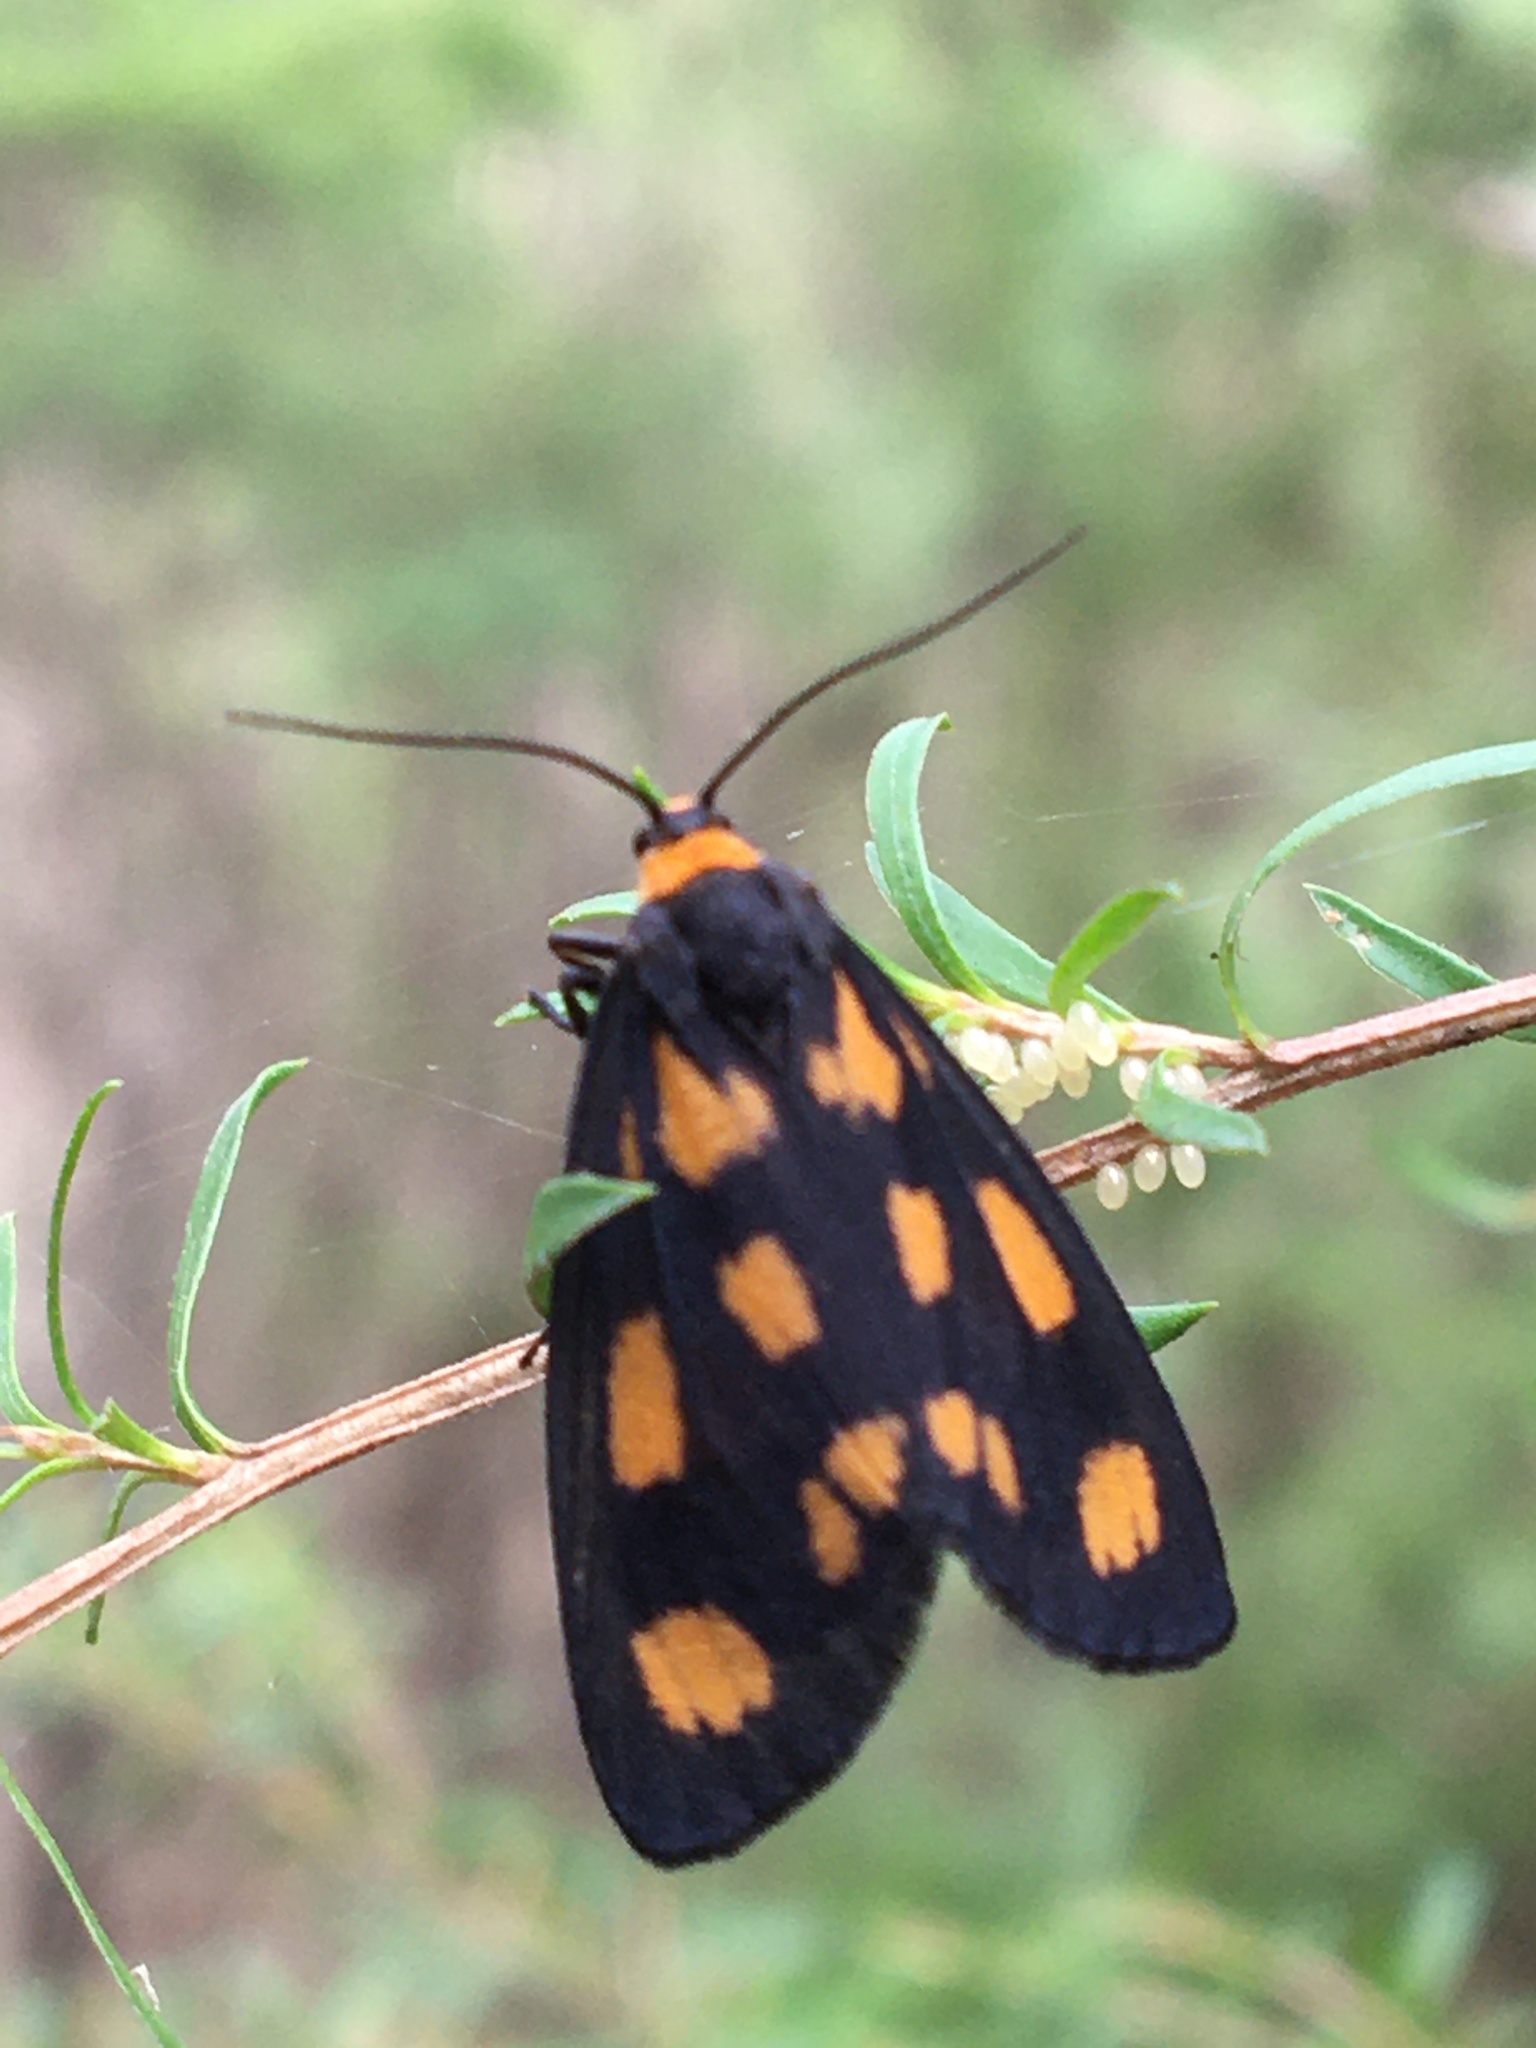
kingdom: Animalia
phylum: Arthropoda
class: Insecta
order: Lepidoptera
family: Erebidae
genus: Asura
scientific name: Asura cervicalis
